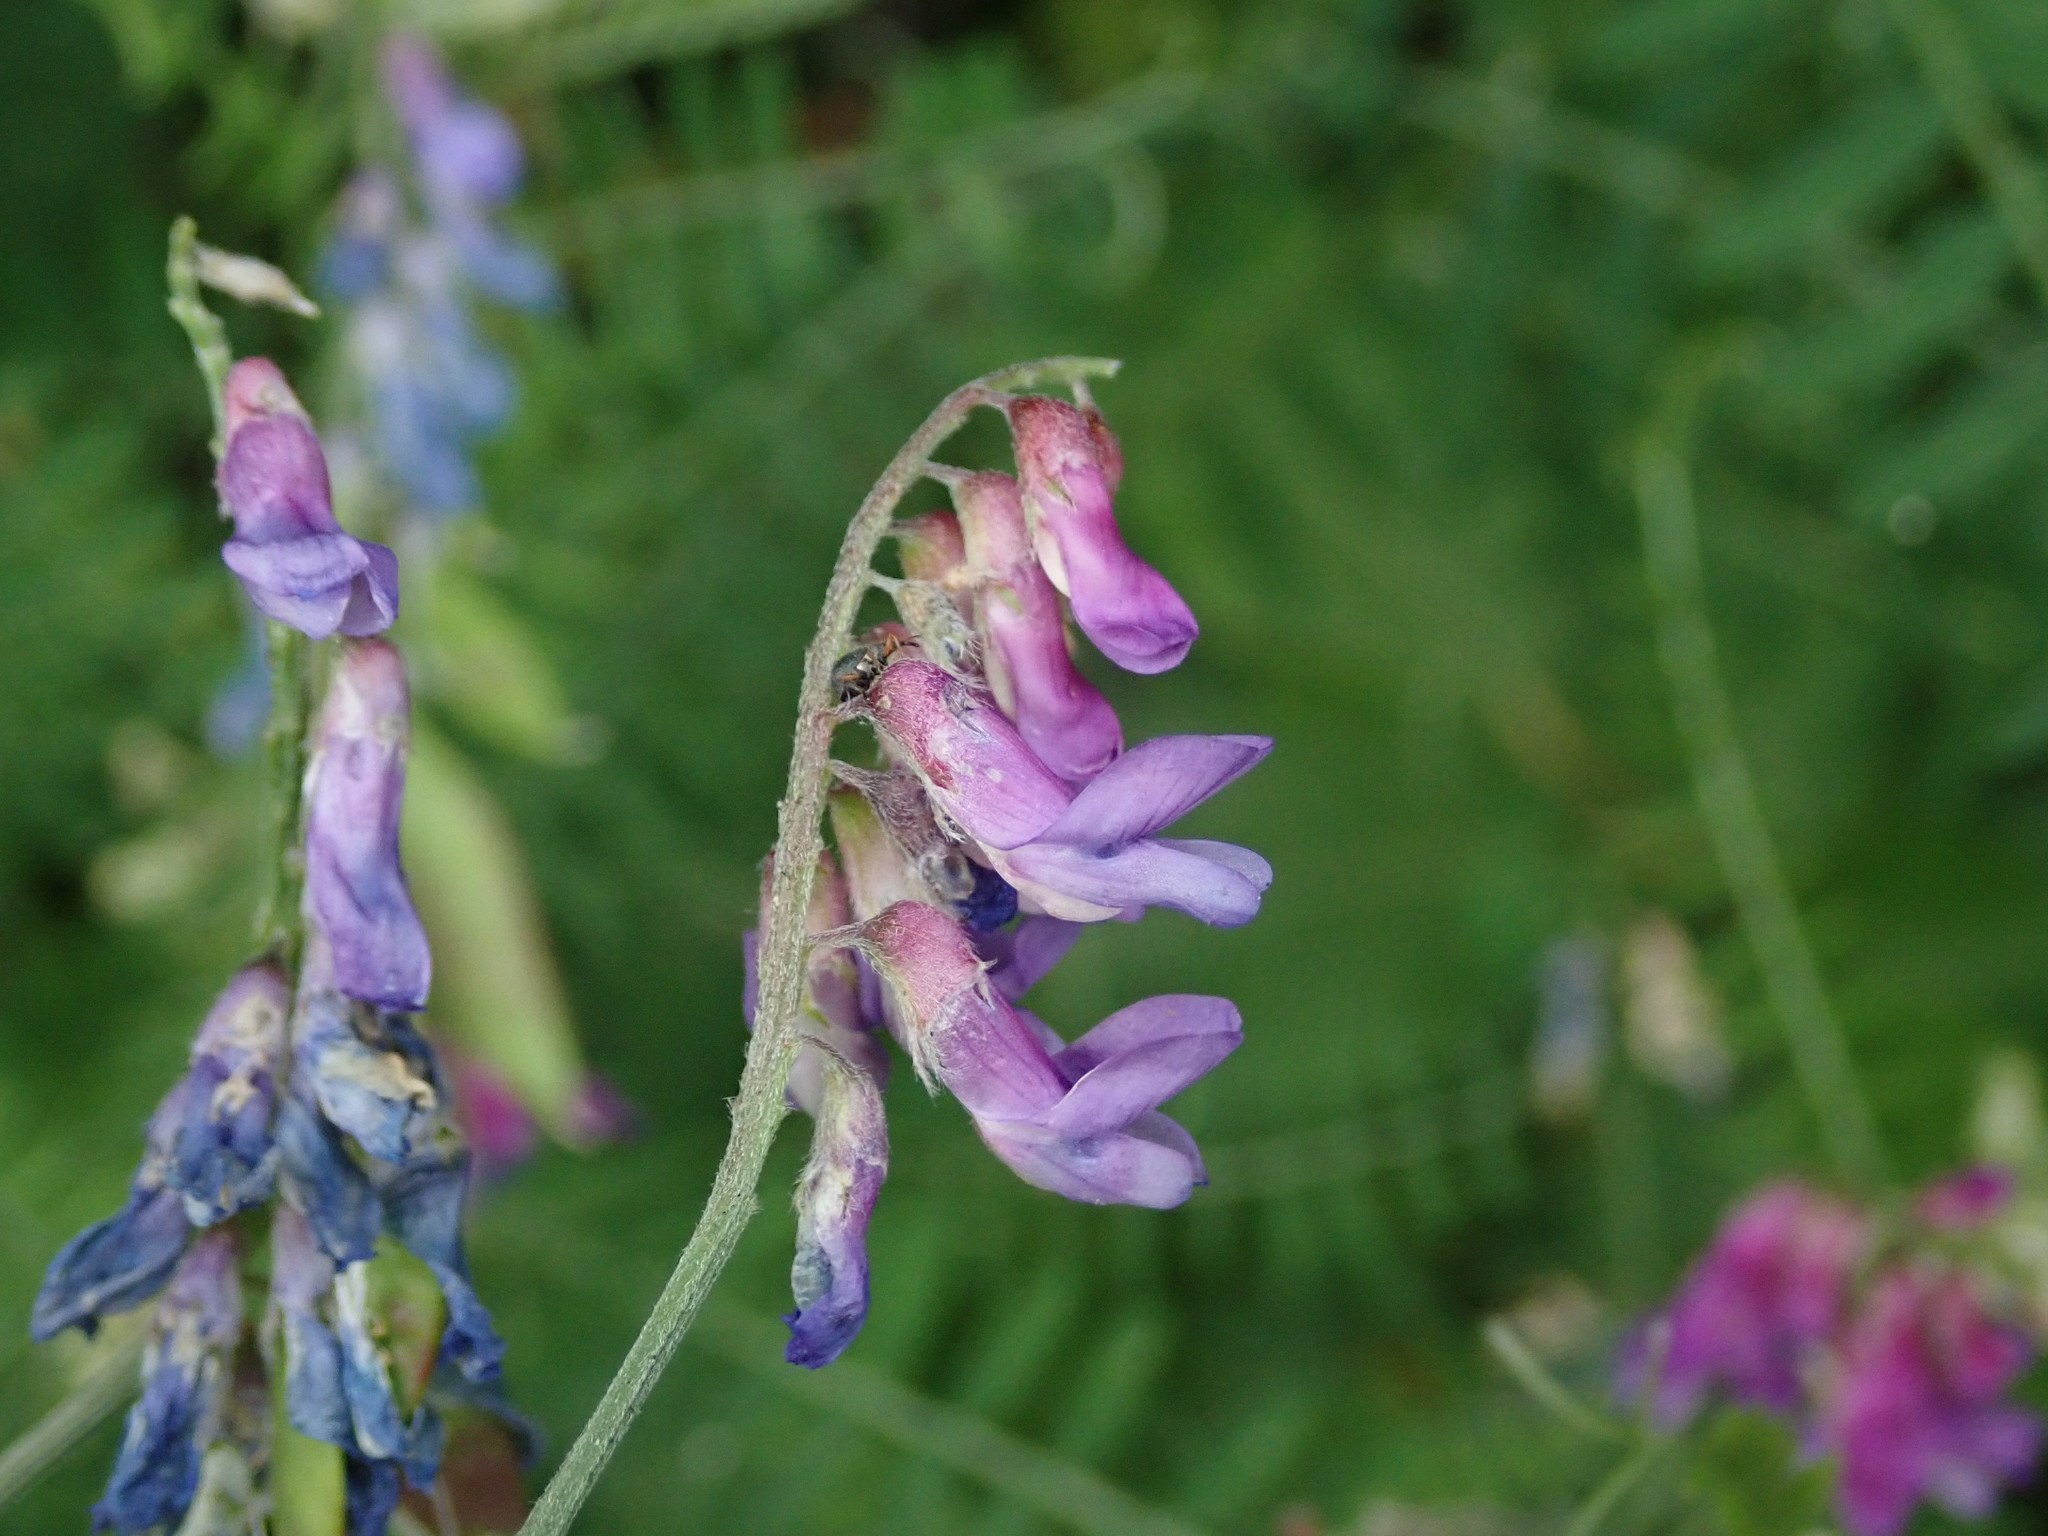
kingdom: Plantae
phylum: Tracheophyta
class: Magnoliopsida
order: Fabales
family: Fabaceae
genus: Vicia
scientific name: Vicia cracca
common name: Bird vetch
